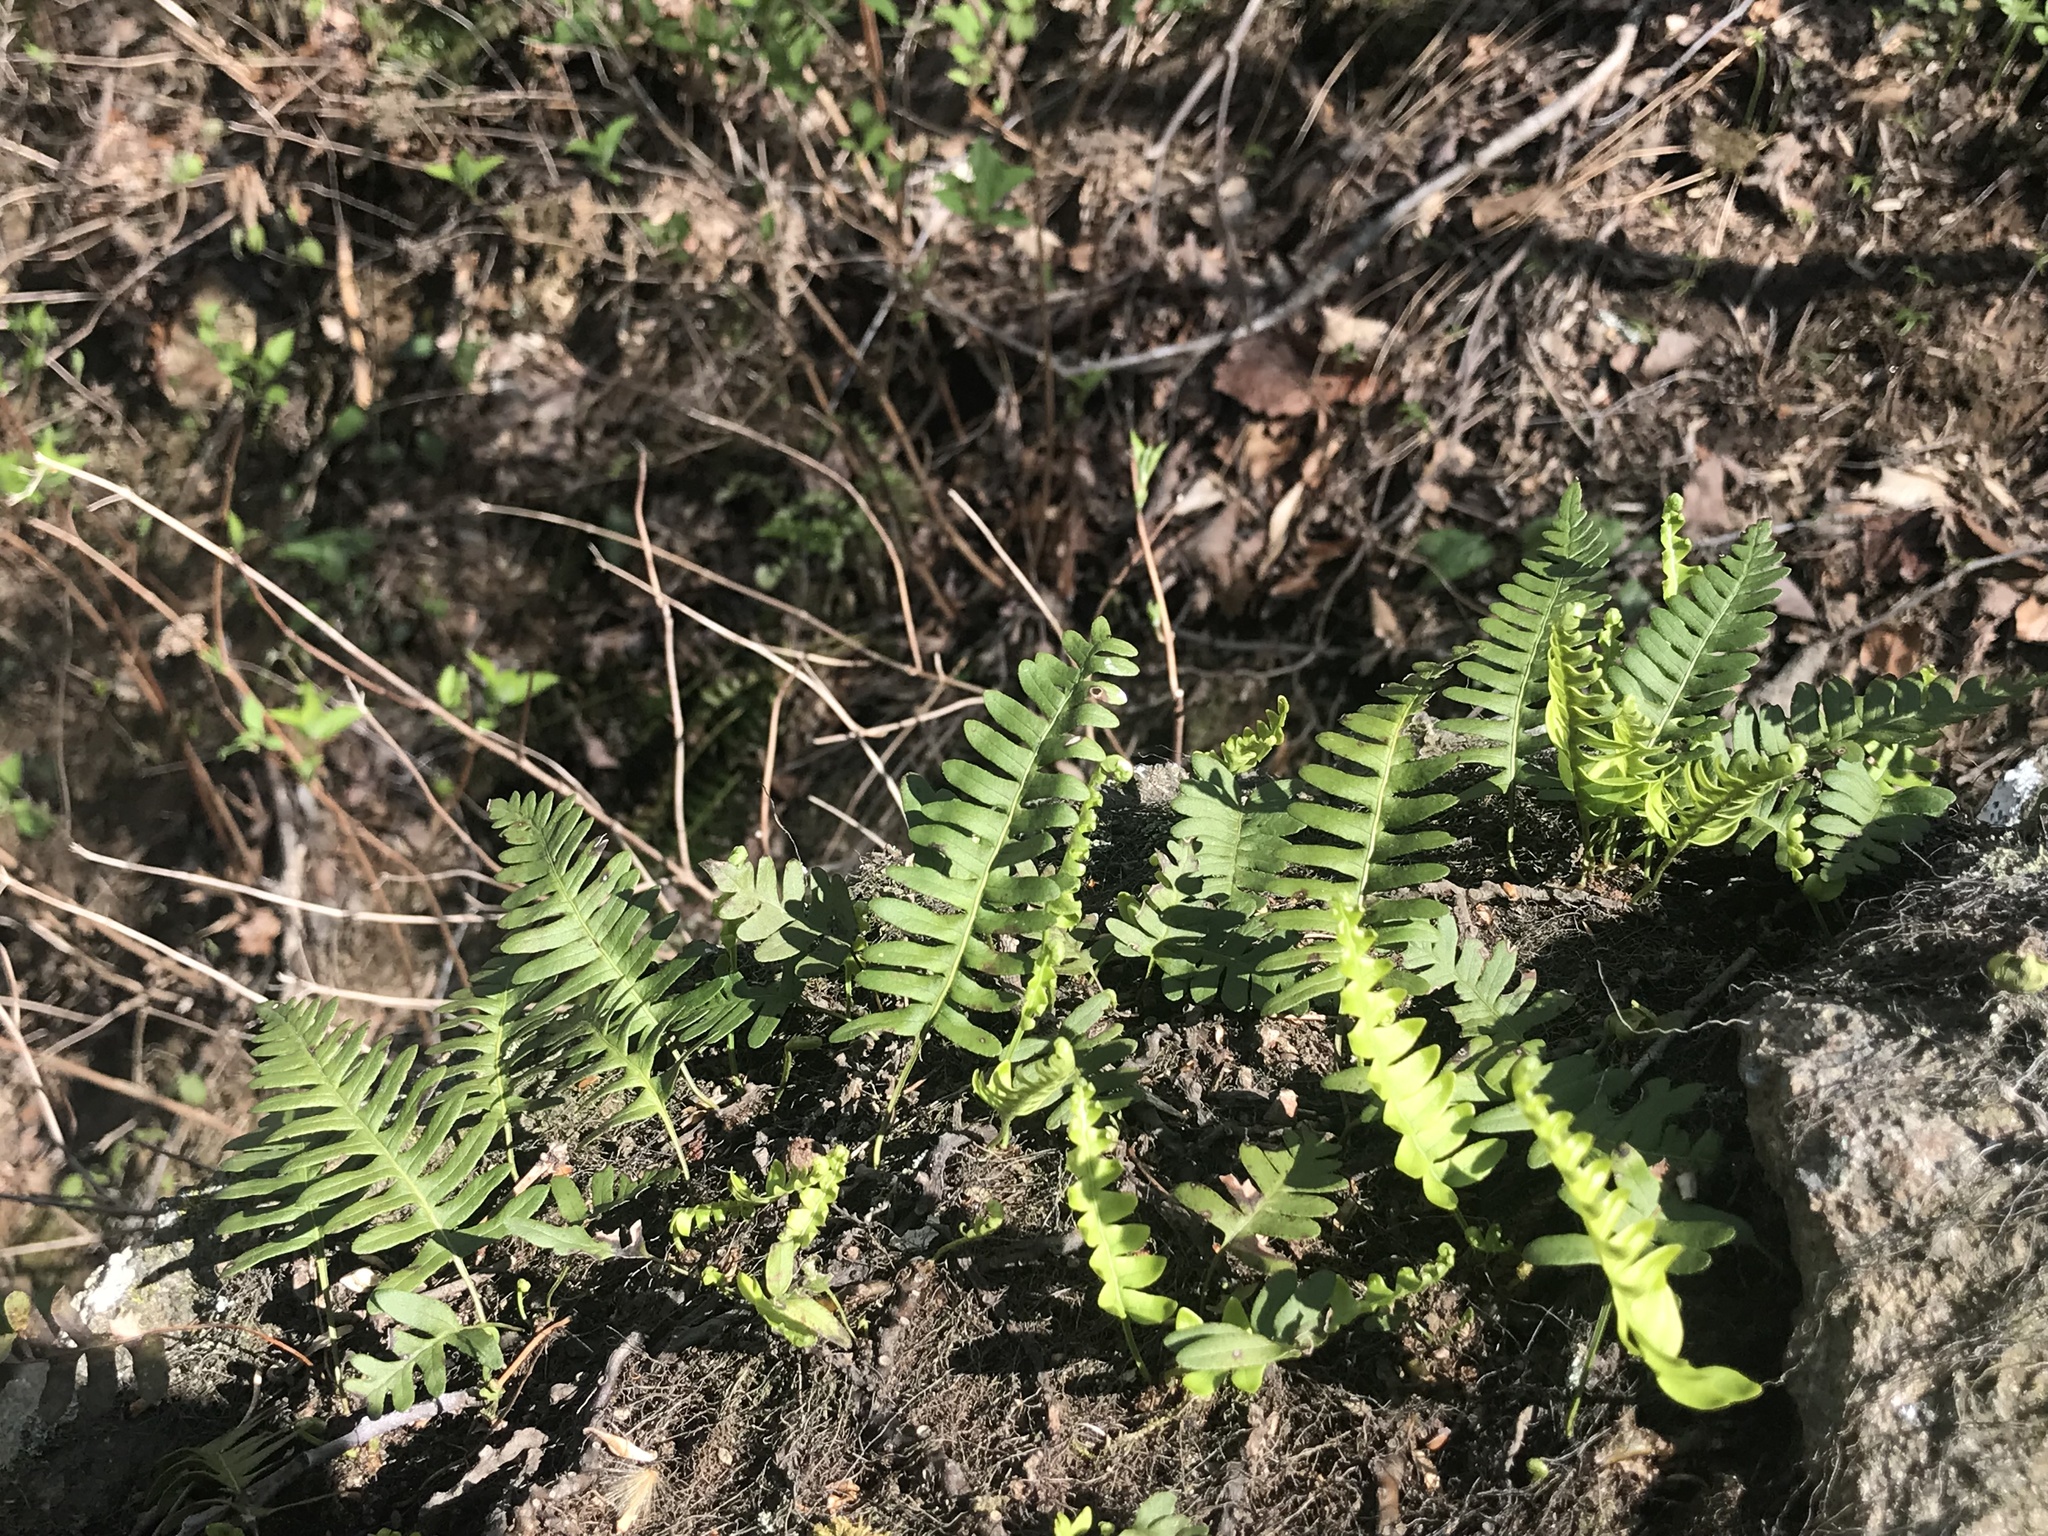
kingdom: Plantae
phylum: Tracheophyta
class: Polypodiopsida
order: Polypodiales
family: Polypodiaceae
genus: Polypodium
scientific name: Polypodium virginianum
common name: American wall fern
